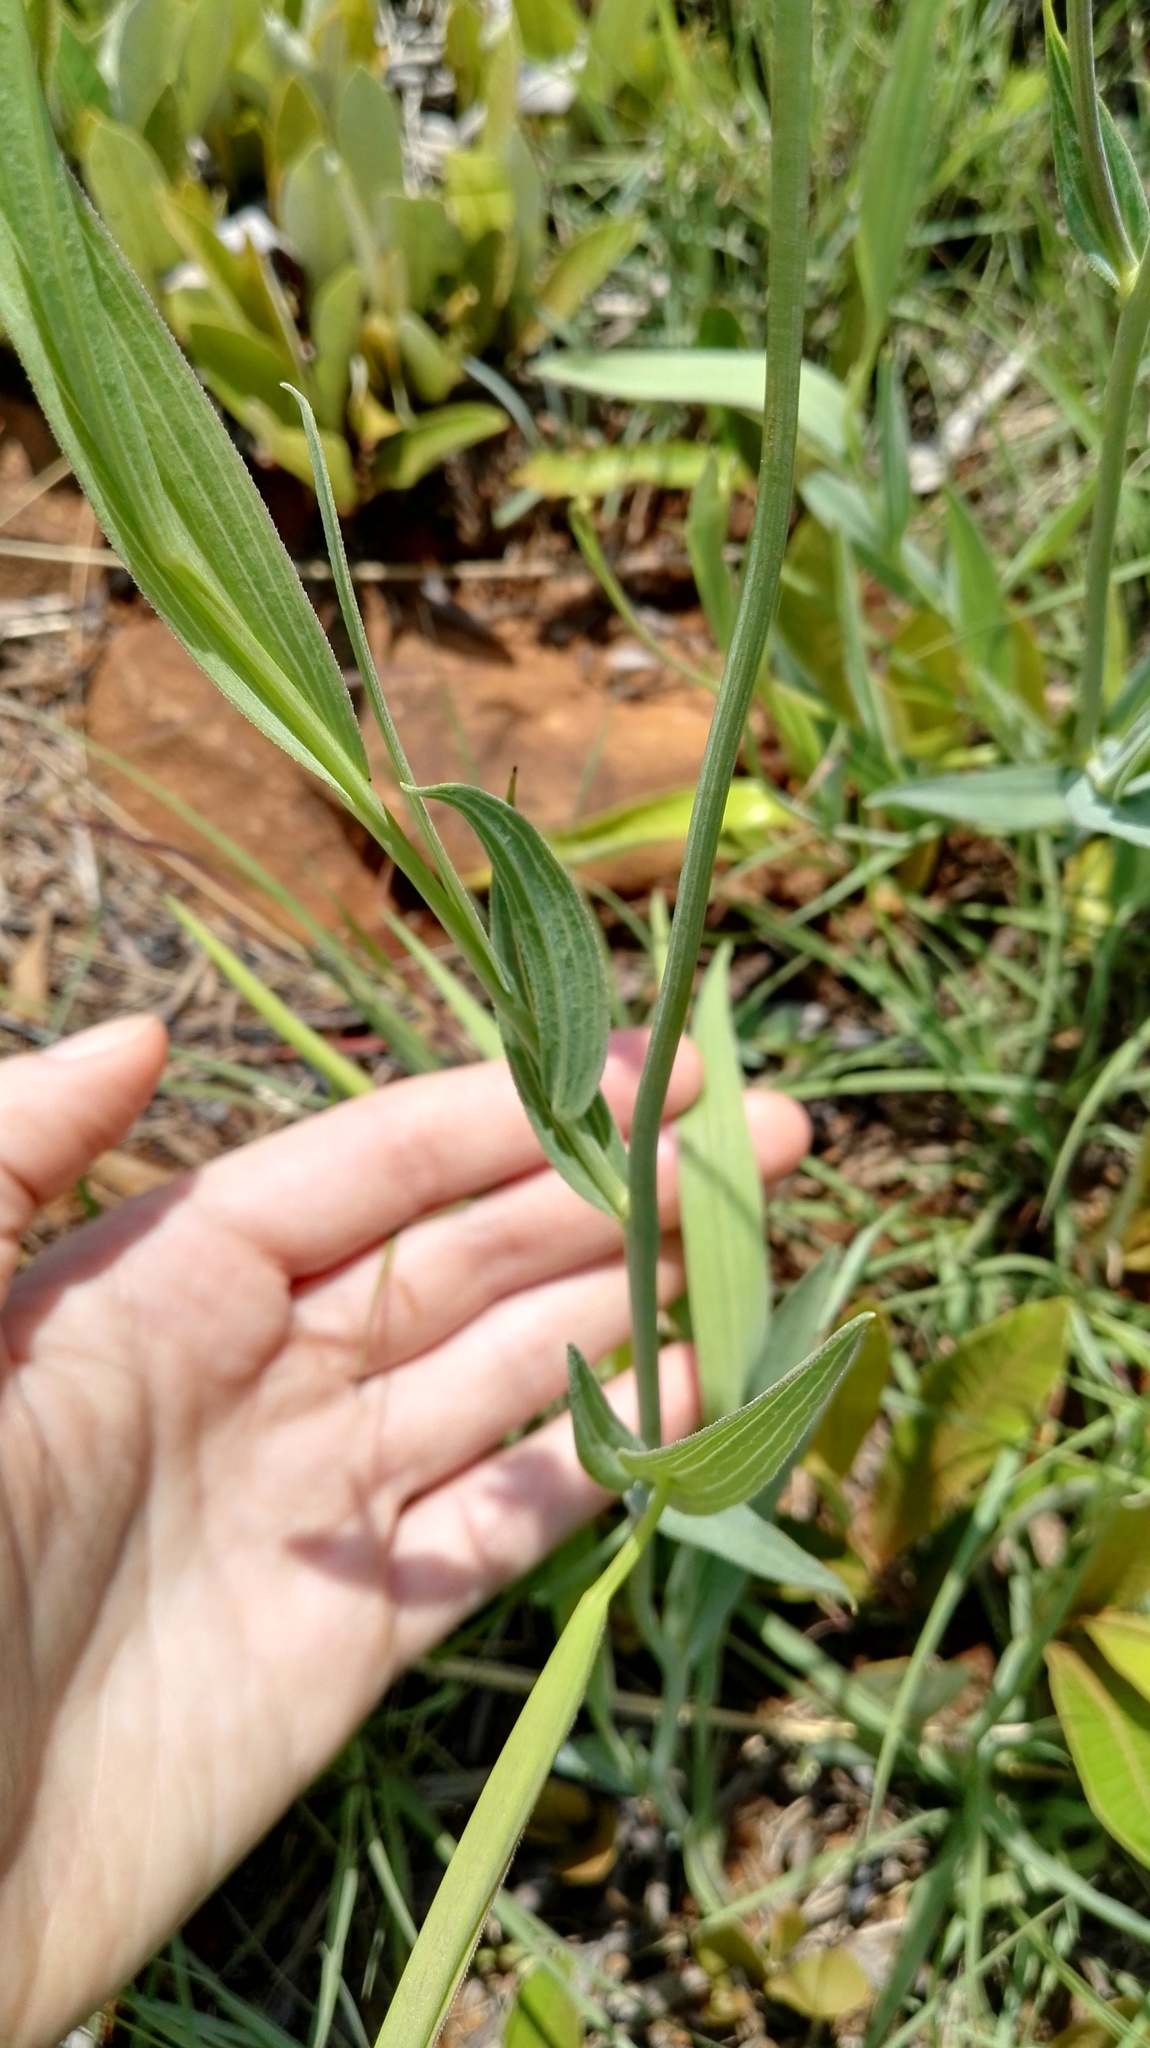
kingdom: Plantae
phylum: Tracheophyta
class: Magnoliopsida
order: Asterales
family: Asteraceae
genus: Afroaster
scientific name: Afroaster hispidus
